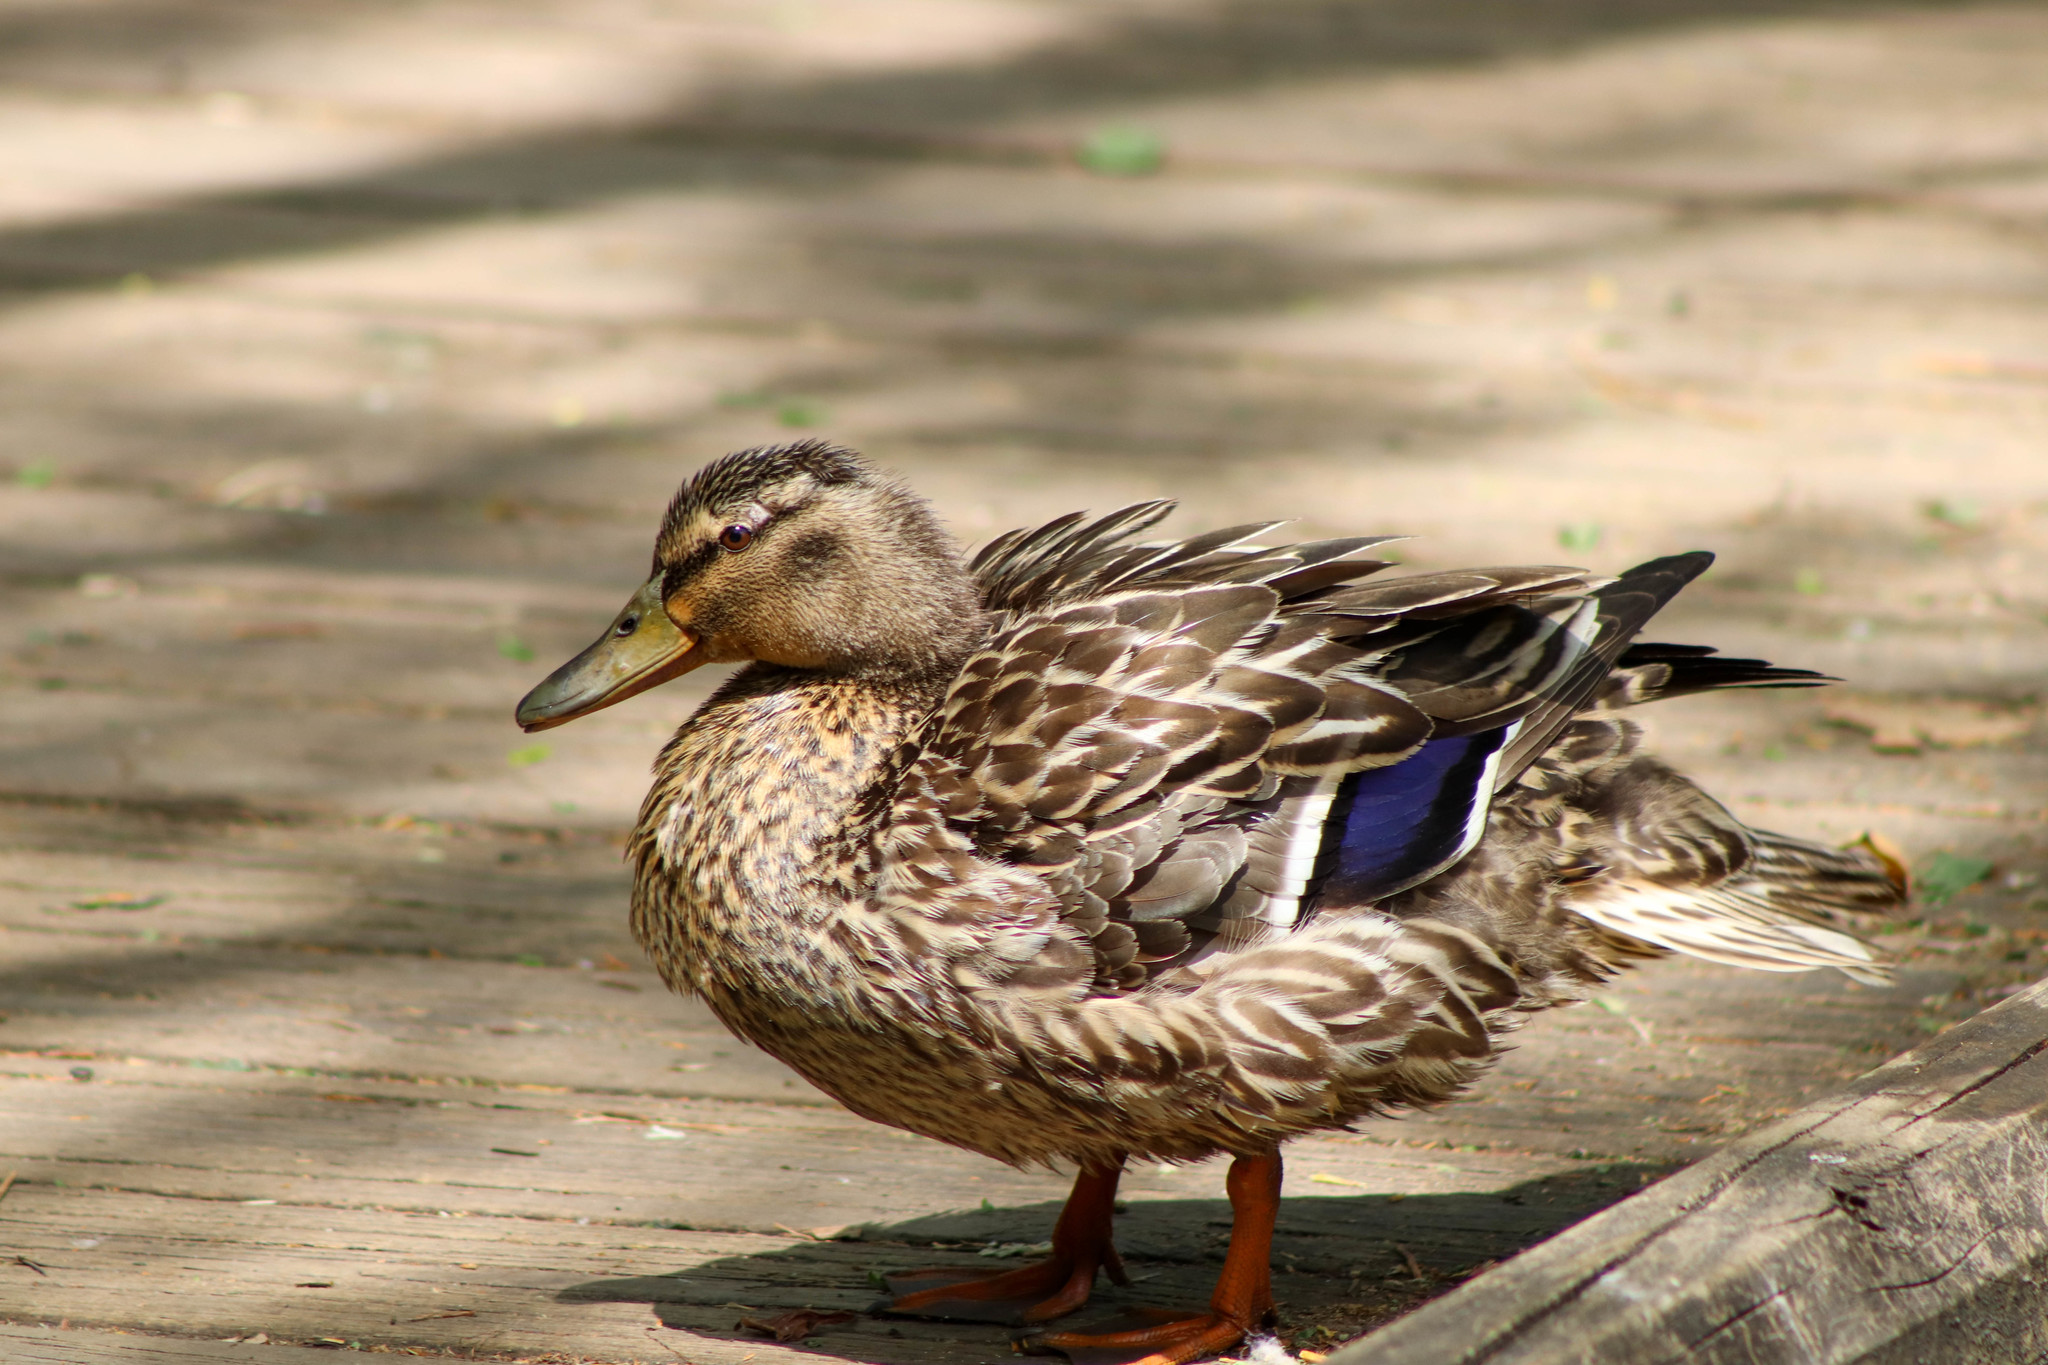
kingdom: Animalia
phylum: Chordata
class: Aves
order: Anseriformes
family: Anatidae
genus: Anas
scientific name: Anas platyrhynchos
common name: Mallard
